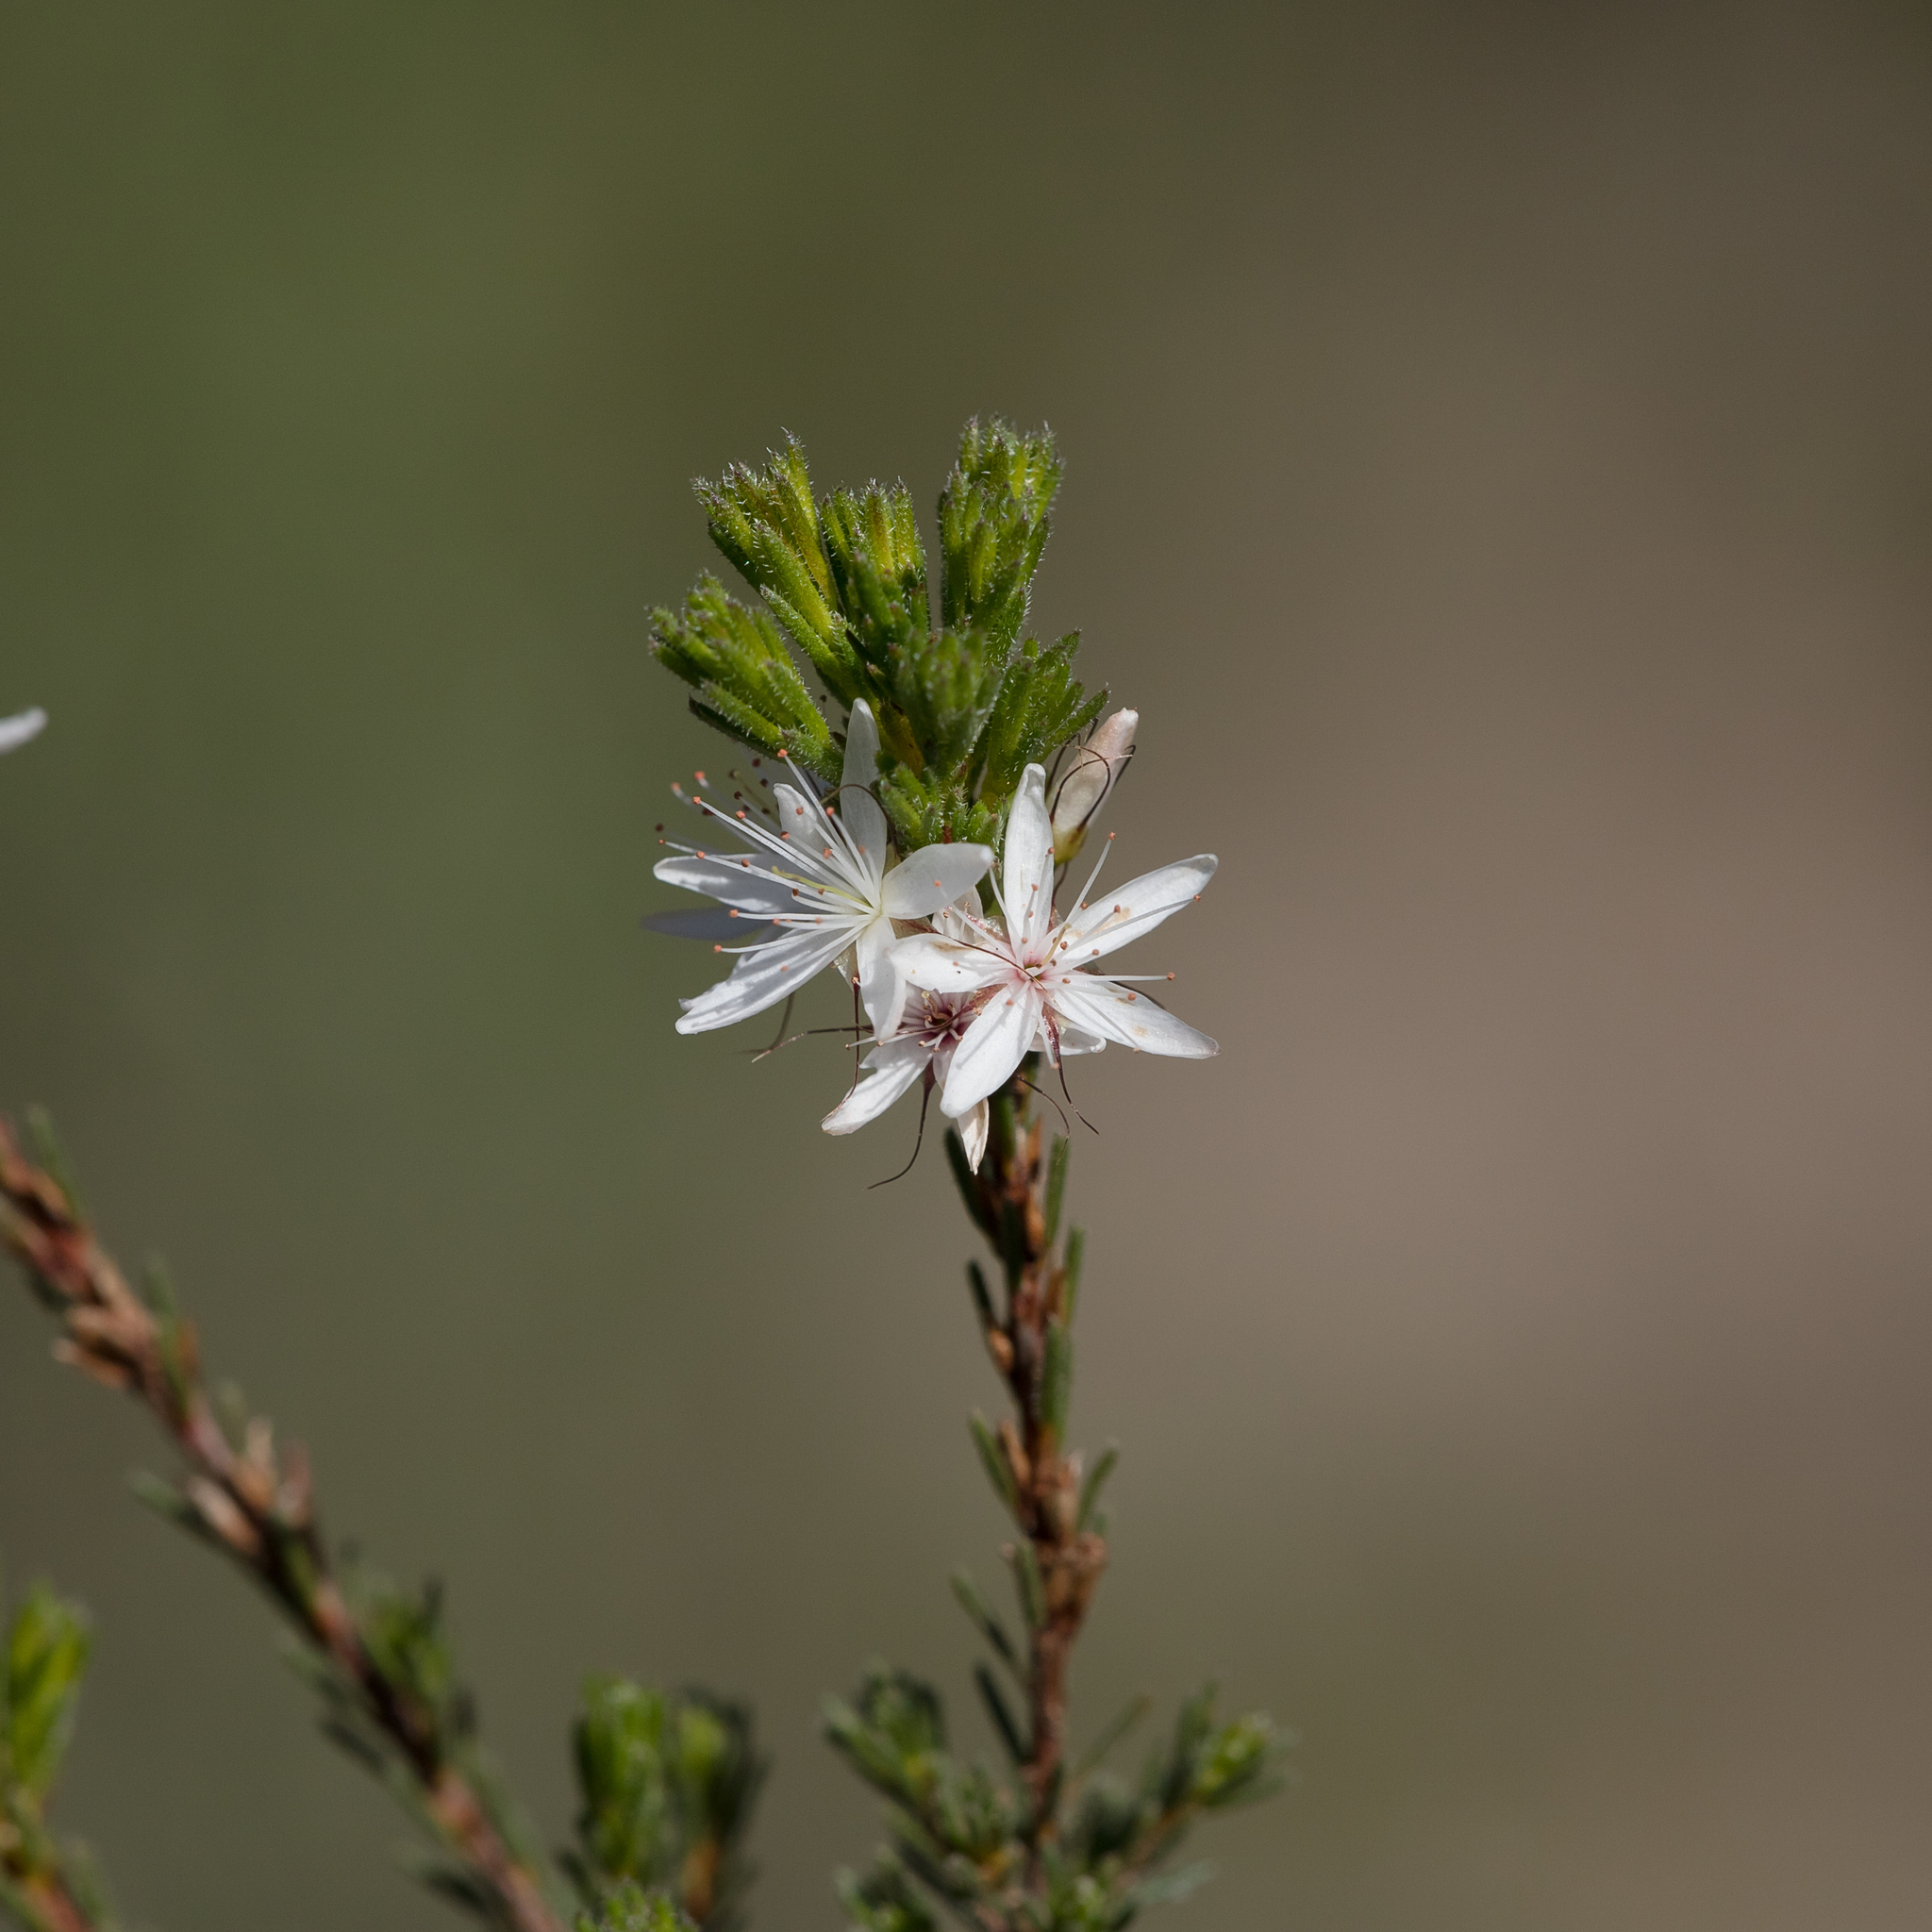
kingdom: Plantae
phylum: Tracheophyta
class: Magnoliopsida
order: Myrtales
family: Myrtaceae
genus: Calytrix
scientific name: Calytrix tetragona
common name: Common fringe myrtle
